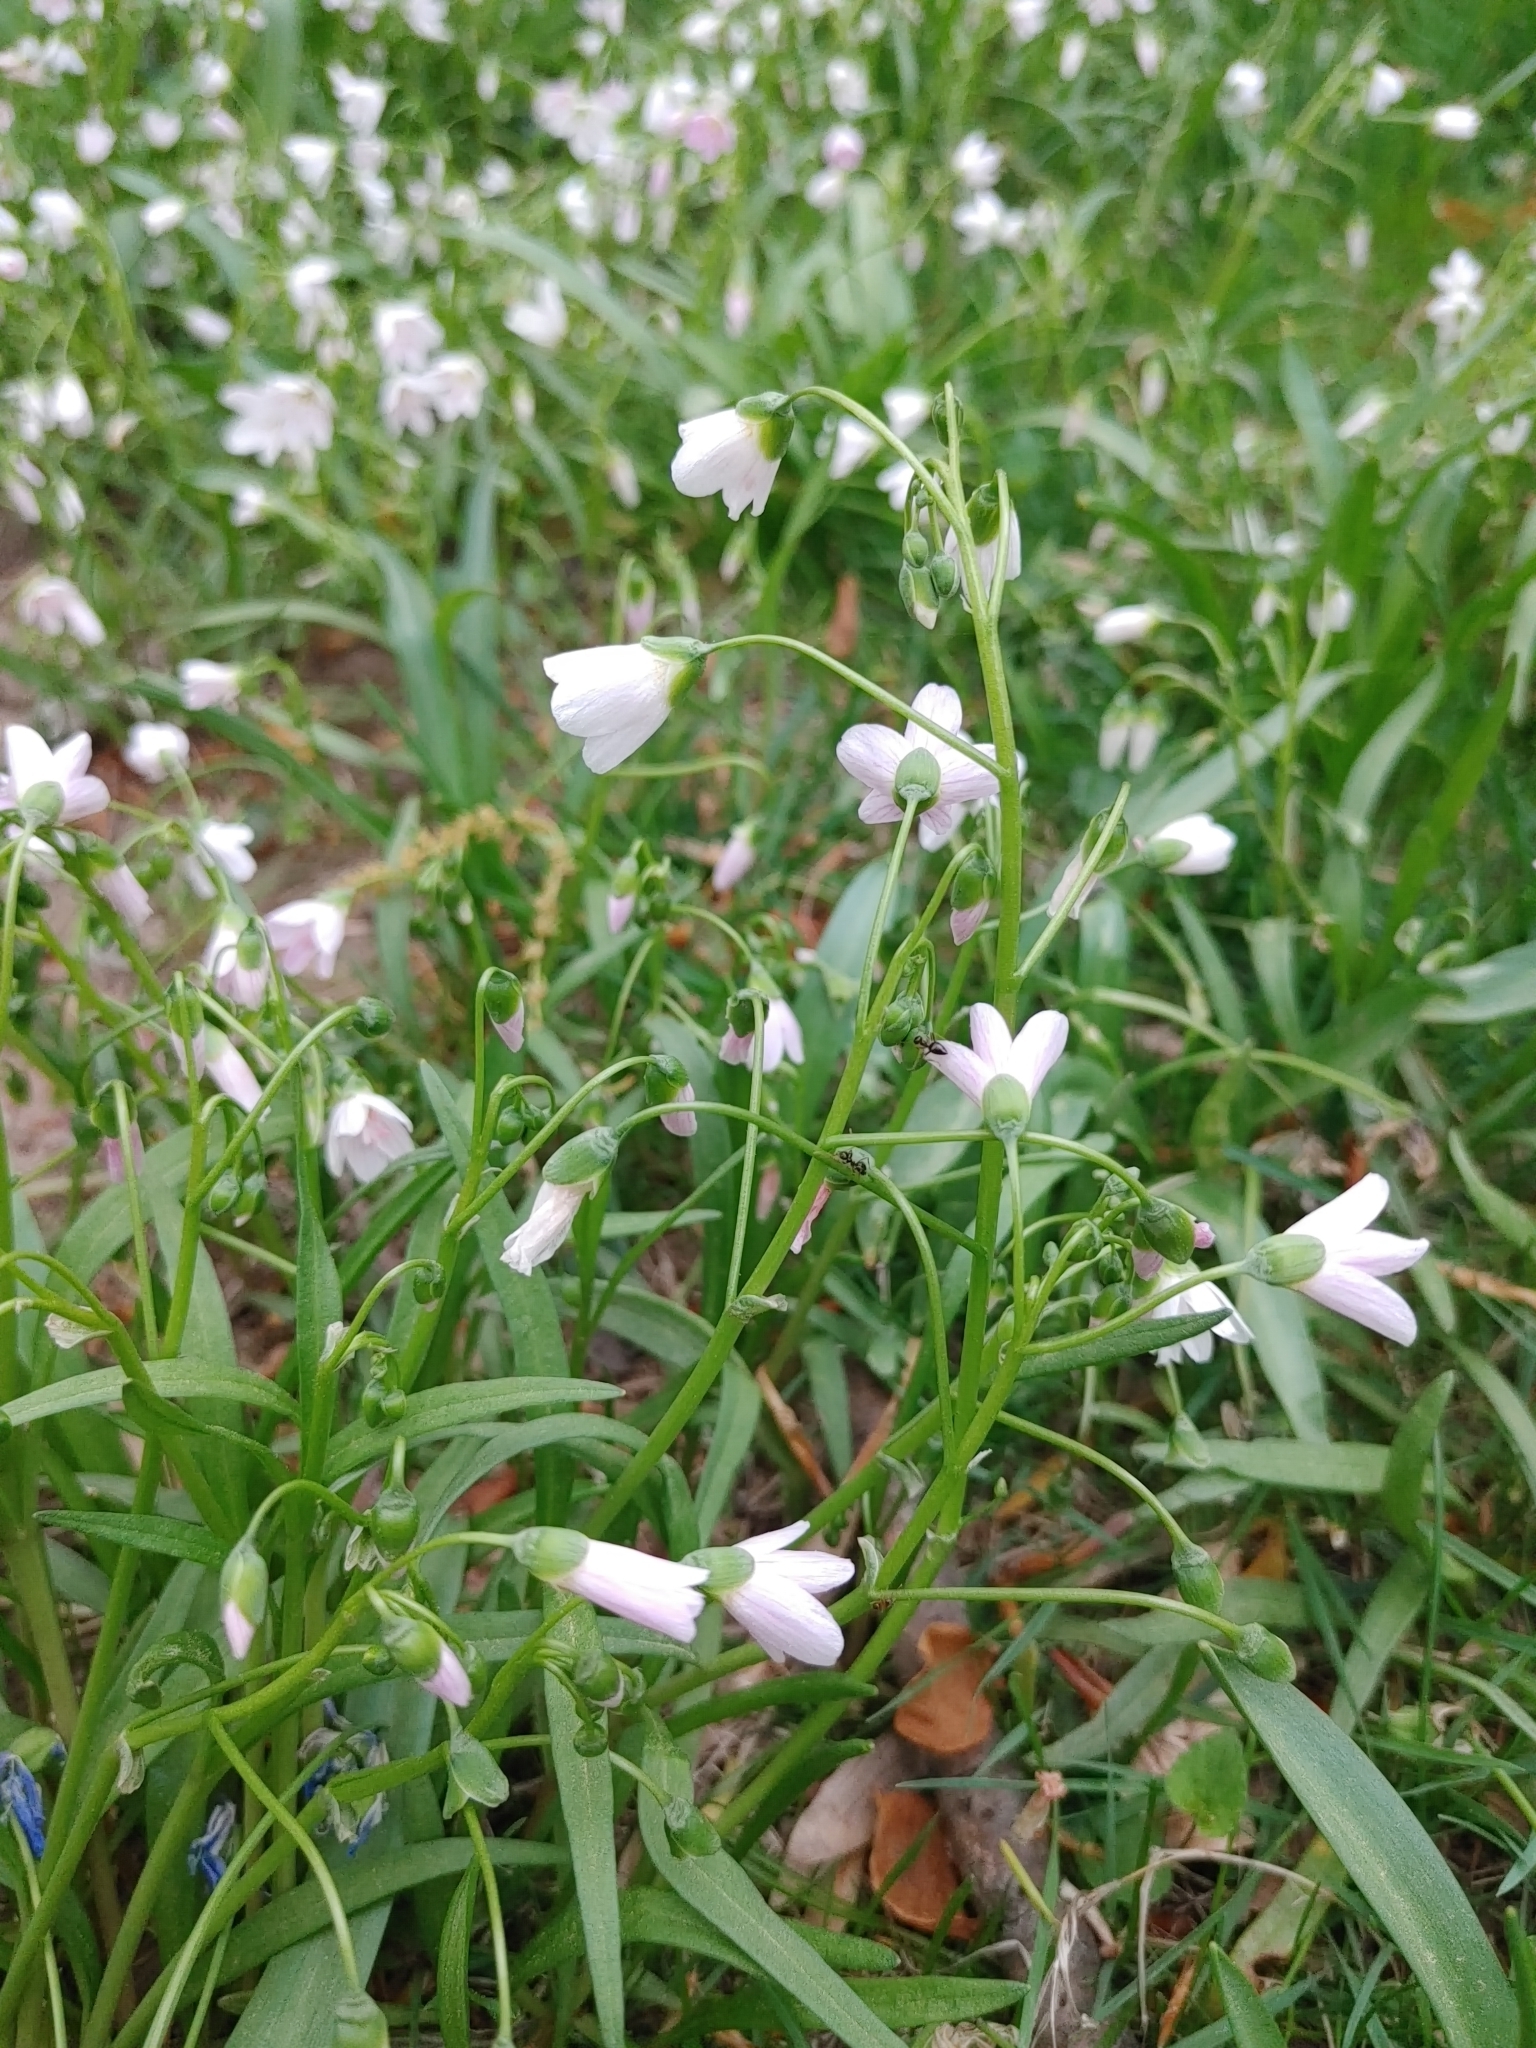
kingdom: Plantae
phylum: Tracheophyta
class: Magnoliopsida
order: Caryophyllales
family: Montiaceae
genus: Claytonia
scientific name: Claytonia virginica
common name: Virginia springbeauty
